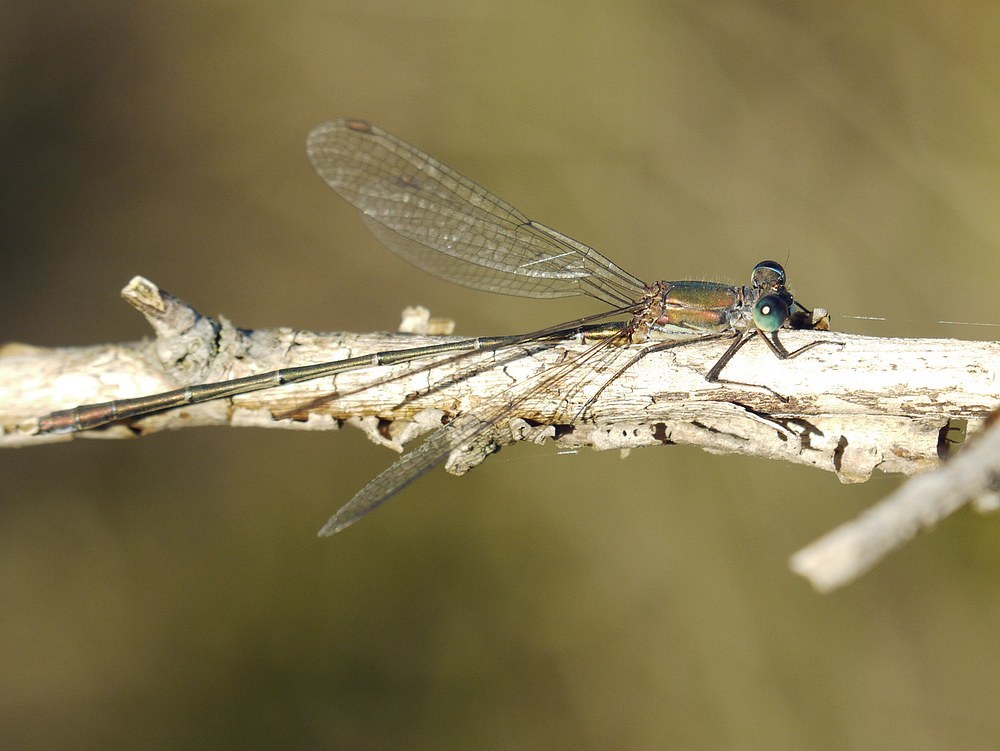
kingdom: Animalia
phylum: Arthropoda
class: Insecta
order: Odonata
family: Lestidae
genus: Chalcolestes
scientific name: Chalcolestes parvidens
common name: Eastern willow spreadwing
